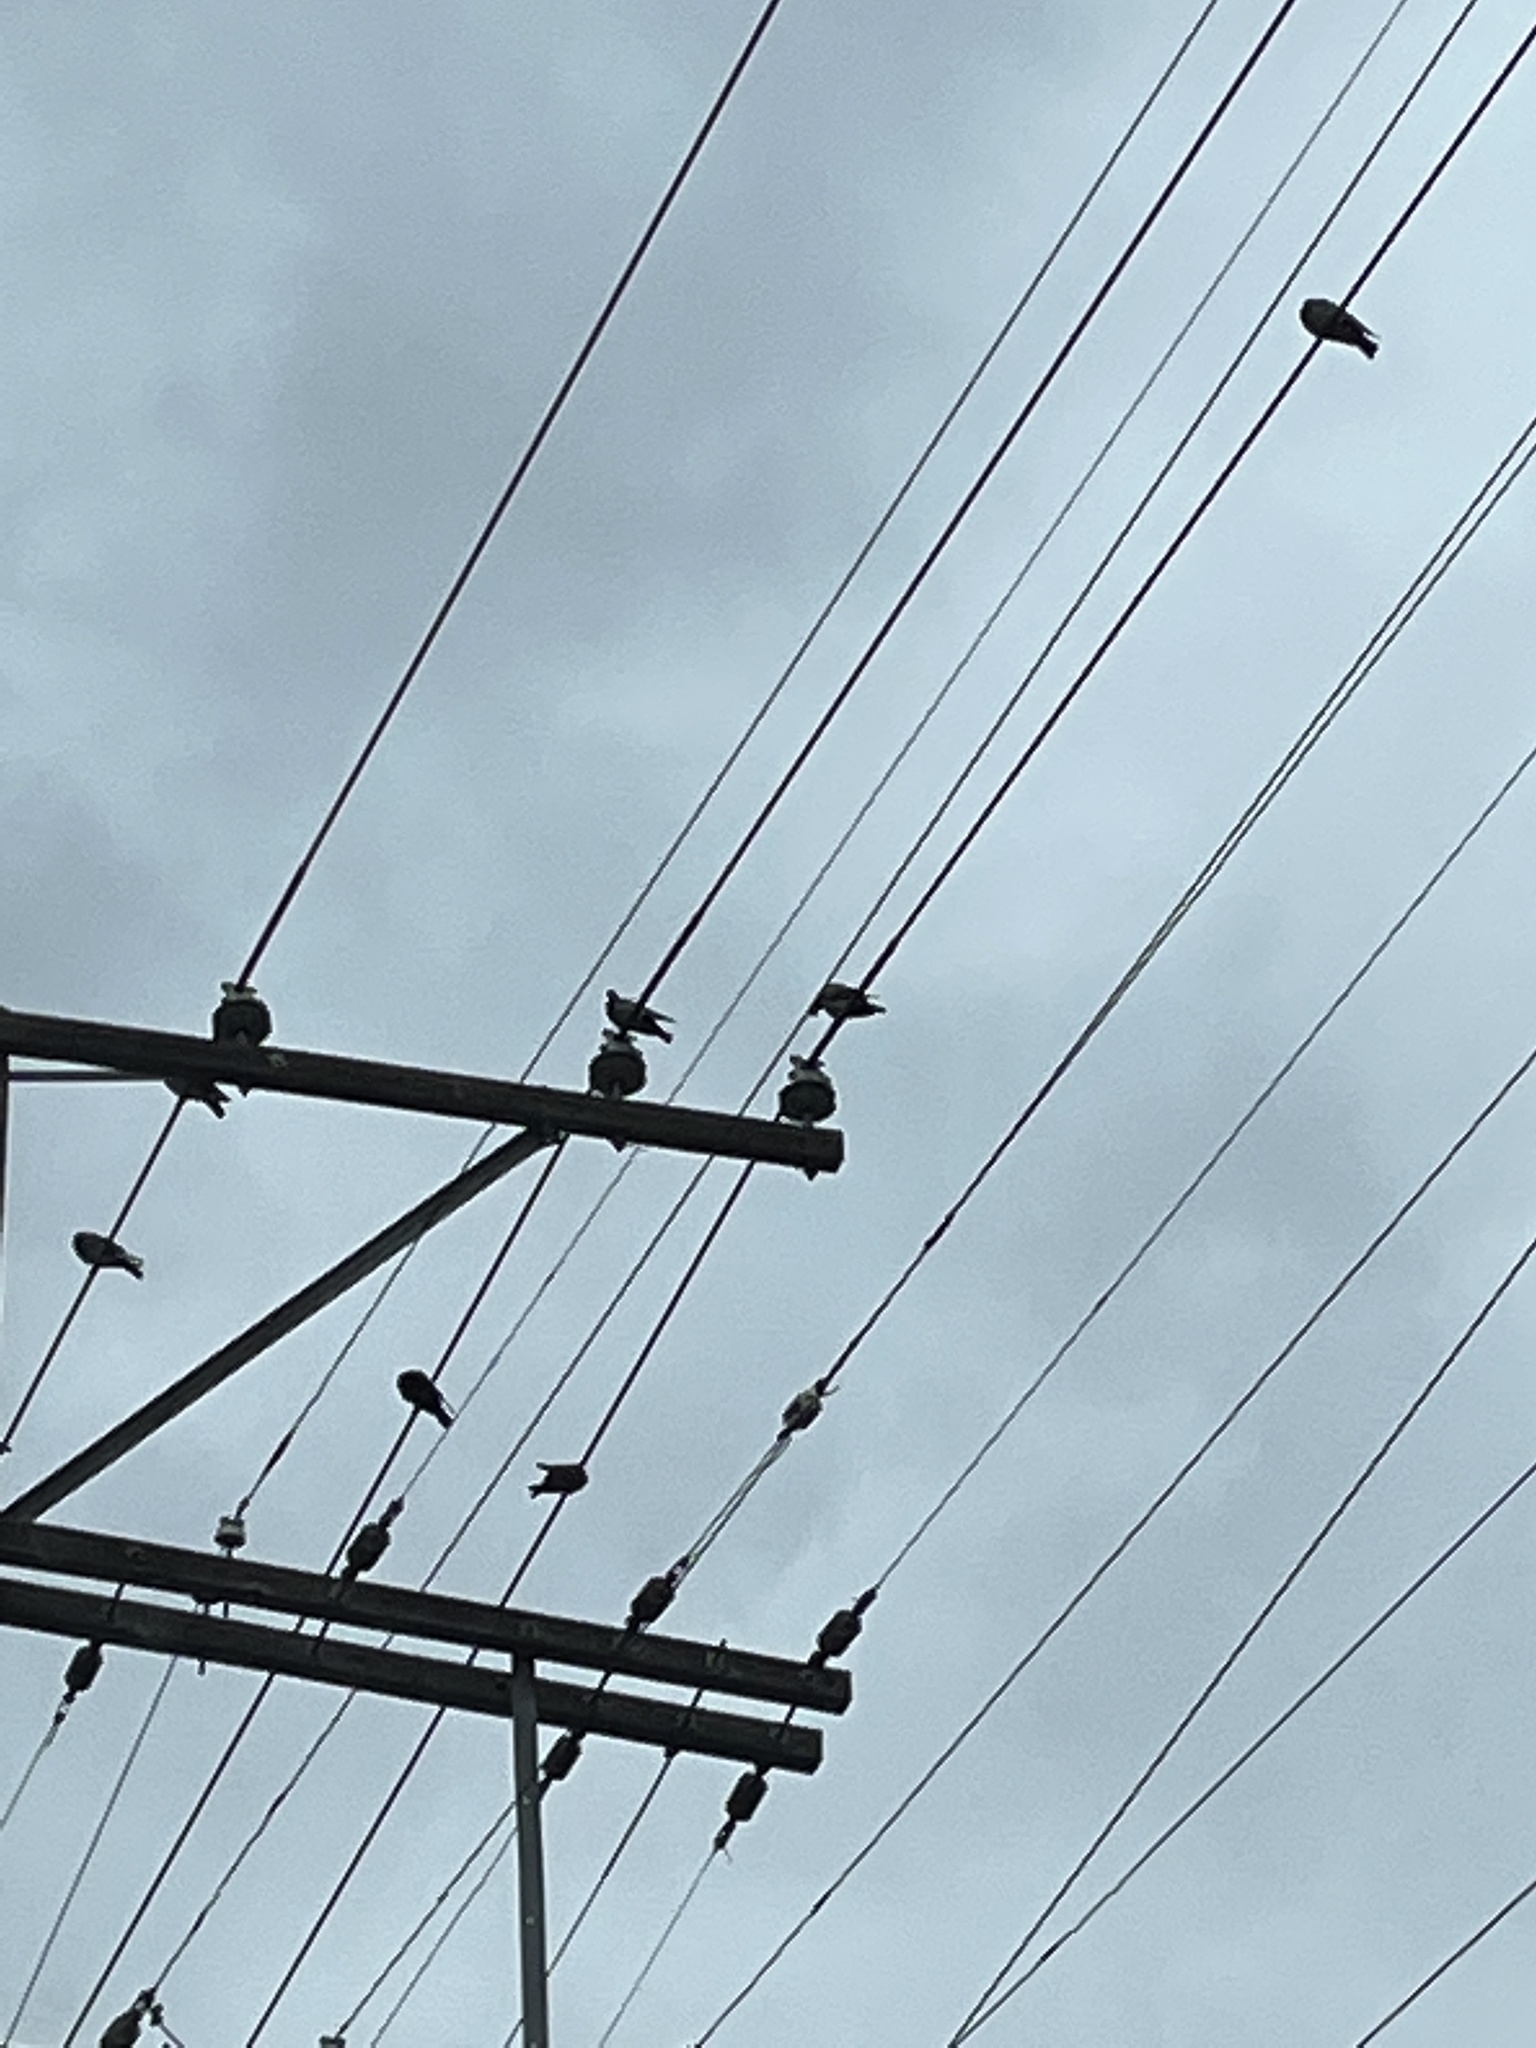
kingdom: Animalia
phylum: Chordata
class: Aves
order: Columbiformes
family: Columbidae
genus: Columba
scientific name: Columba livia
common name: Rock pigeon
